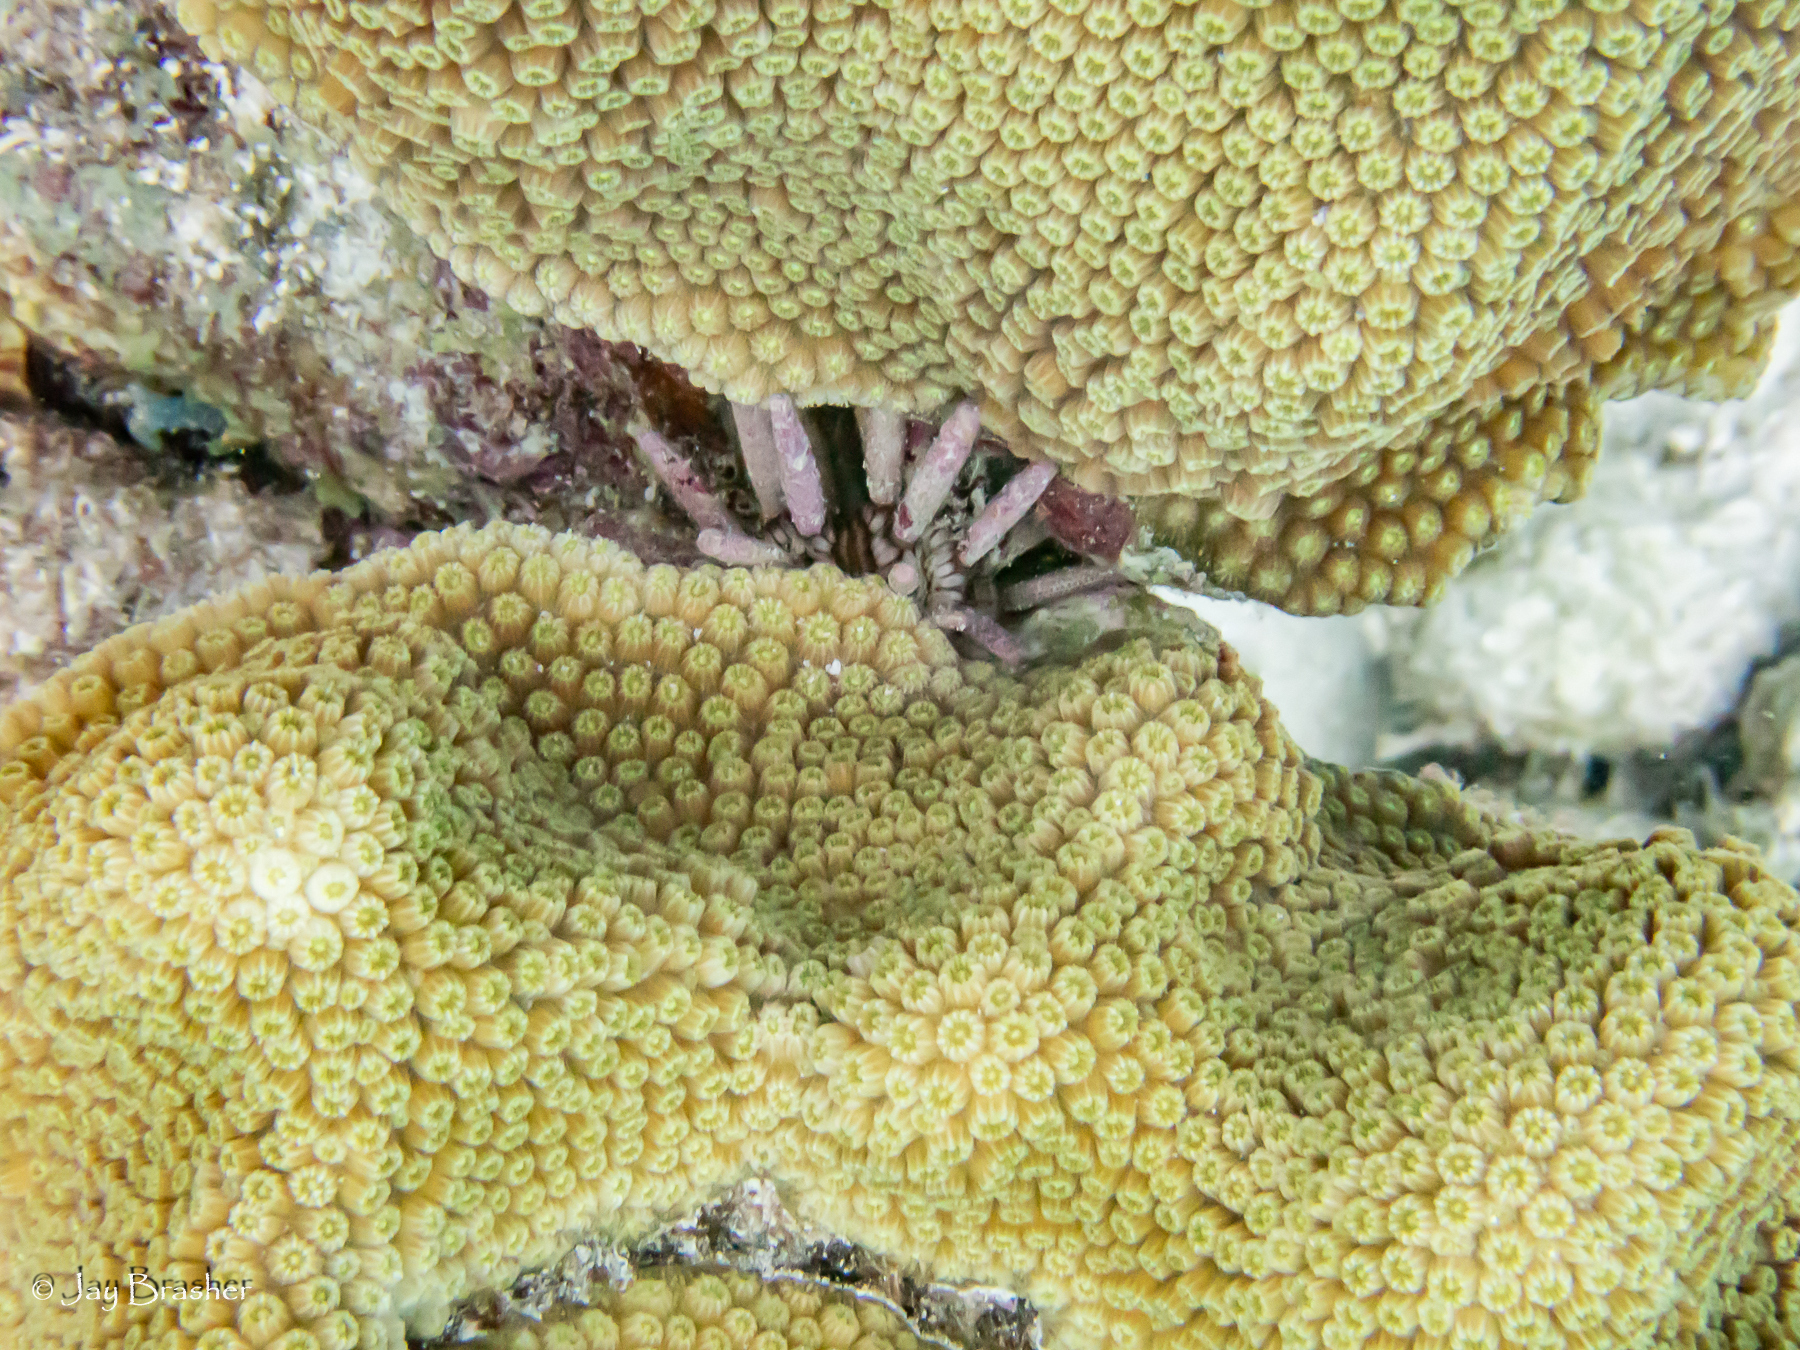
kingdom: Animalia
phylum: Echinodermata
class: Echinoidea
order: Cidaroida
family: Cidaridae
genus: Eucidaris
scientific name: Eucidaris tribuloides
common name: Slate pencil urchin
